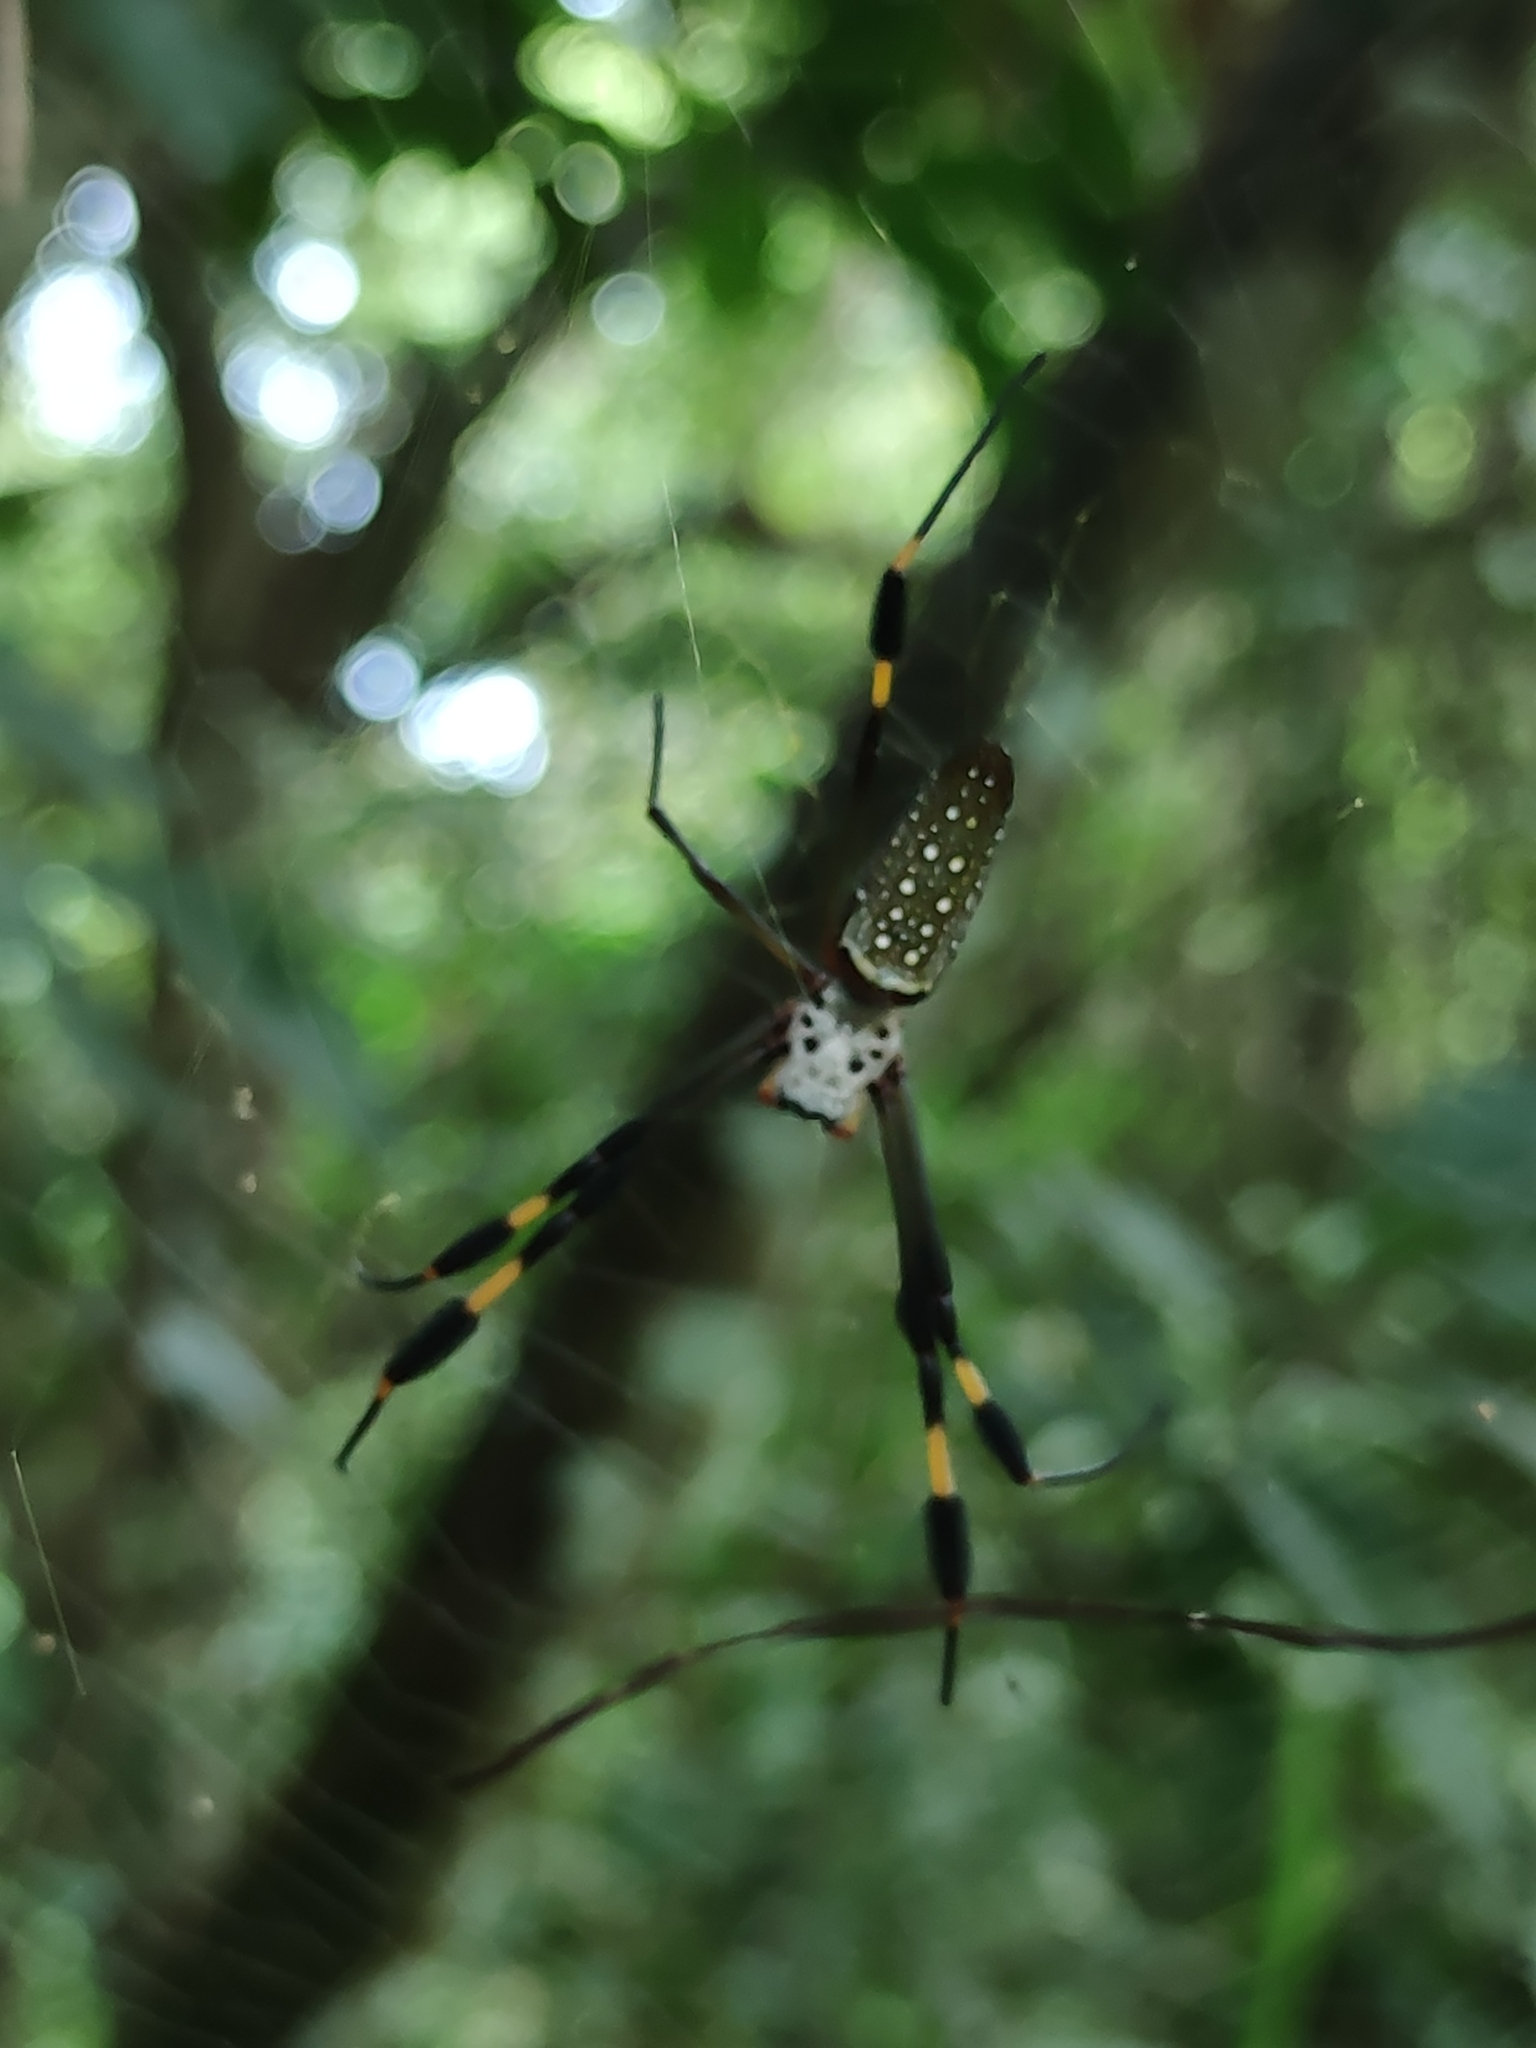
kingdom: Animalia
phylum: Arthropoda
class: Arachnida
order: Araneae
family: Araneidae
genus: Trichonephila
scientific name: Trichonephila clavipes
